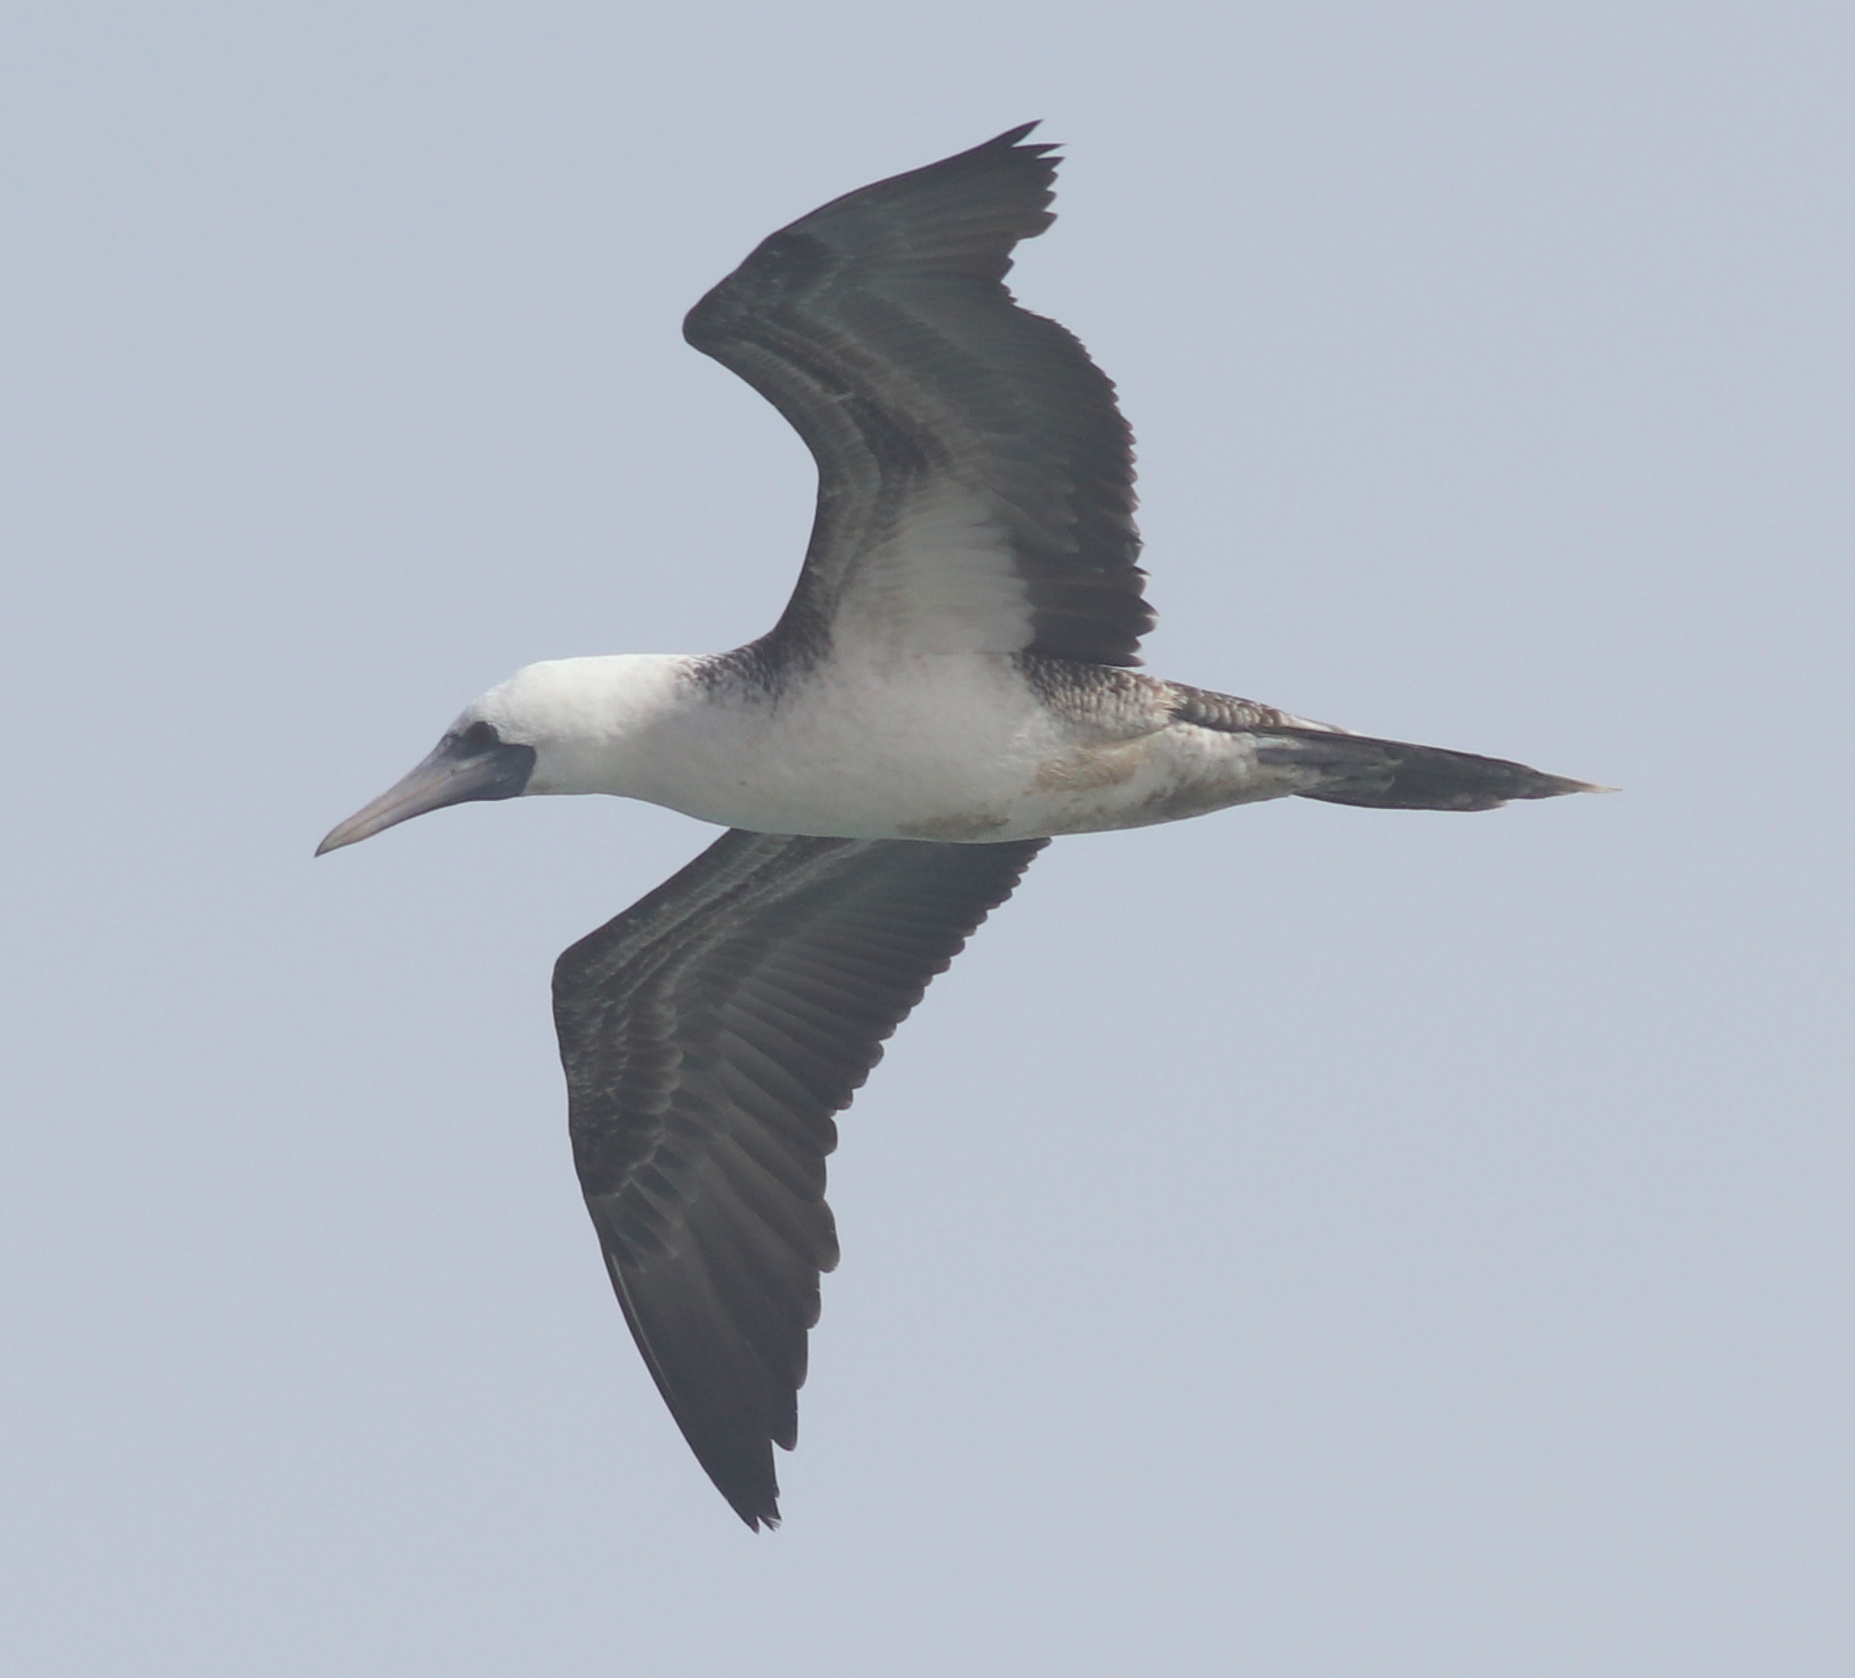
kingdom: Animalia
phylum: Chordata
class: Aves
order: Suliformes
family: Sulidae
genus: Sula
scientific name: Sula variegata
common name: Peruvian booby
